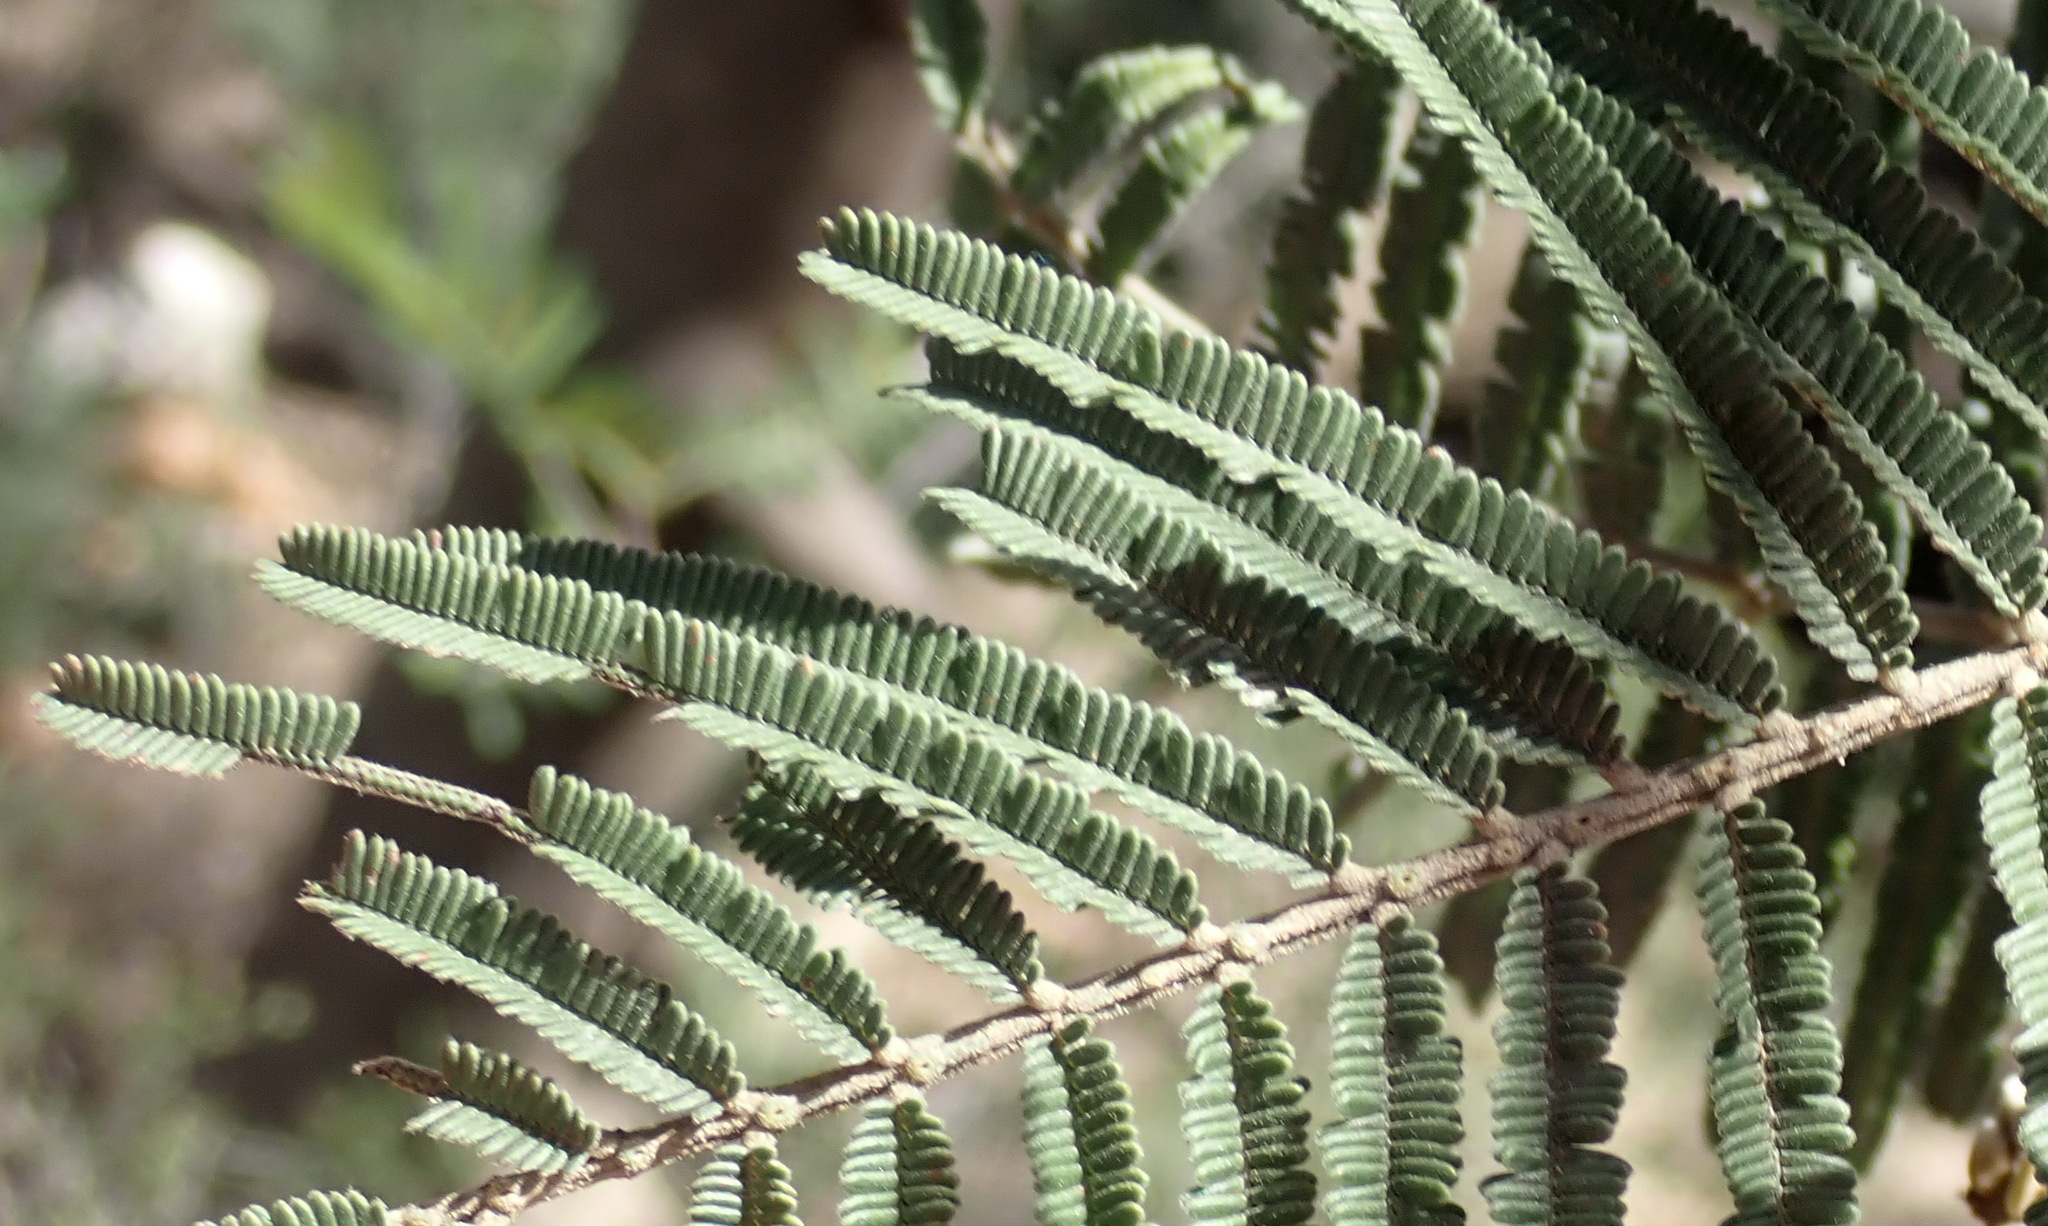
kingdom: Plantae
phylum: Tracheophyta
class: Magnoliopsida
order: Fabales
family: Fabaceae
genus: Acacia
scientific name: Acacia mearnsii
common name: Black wattle
